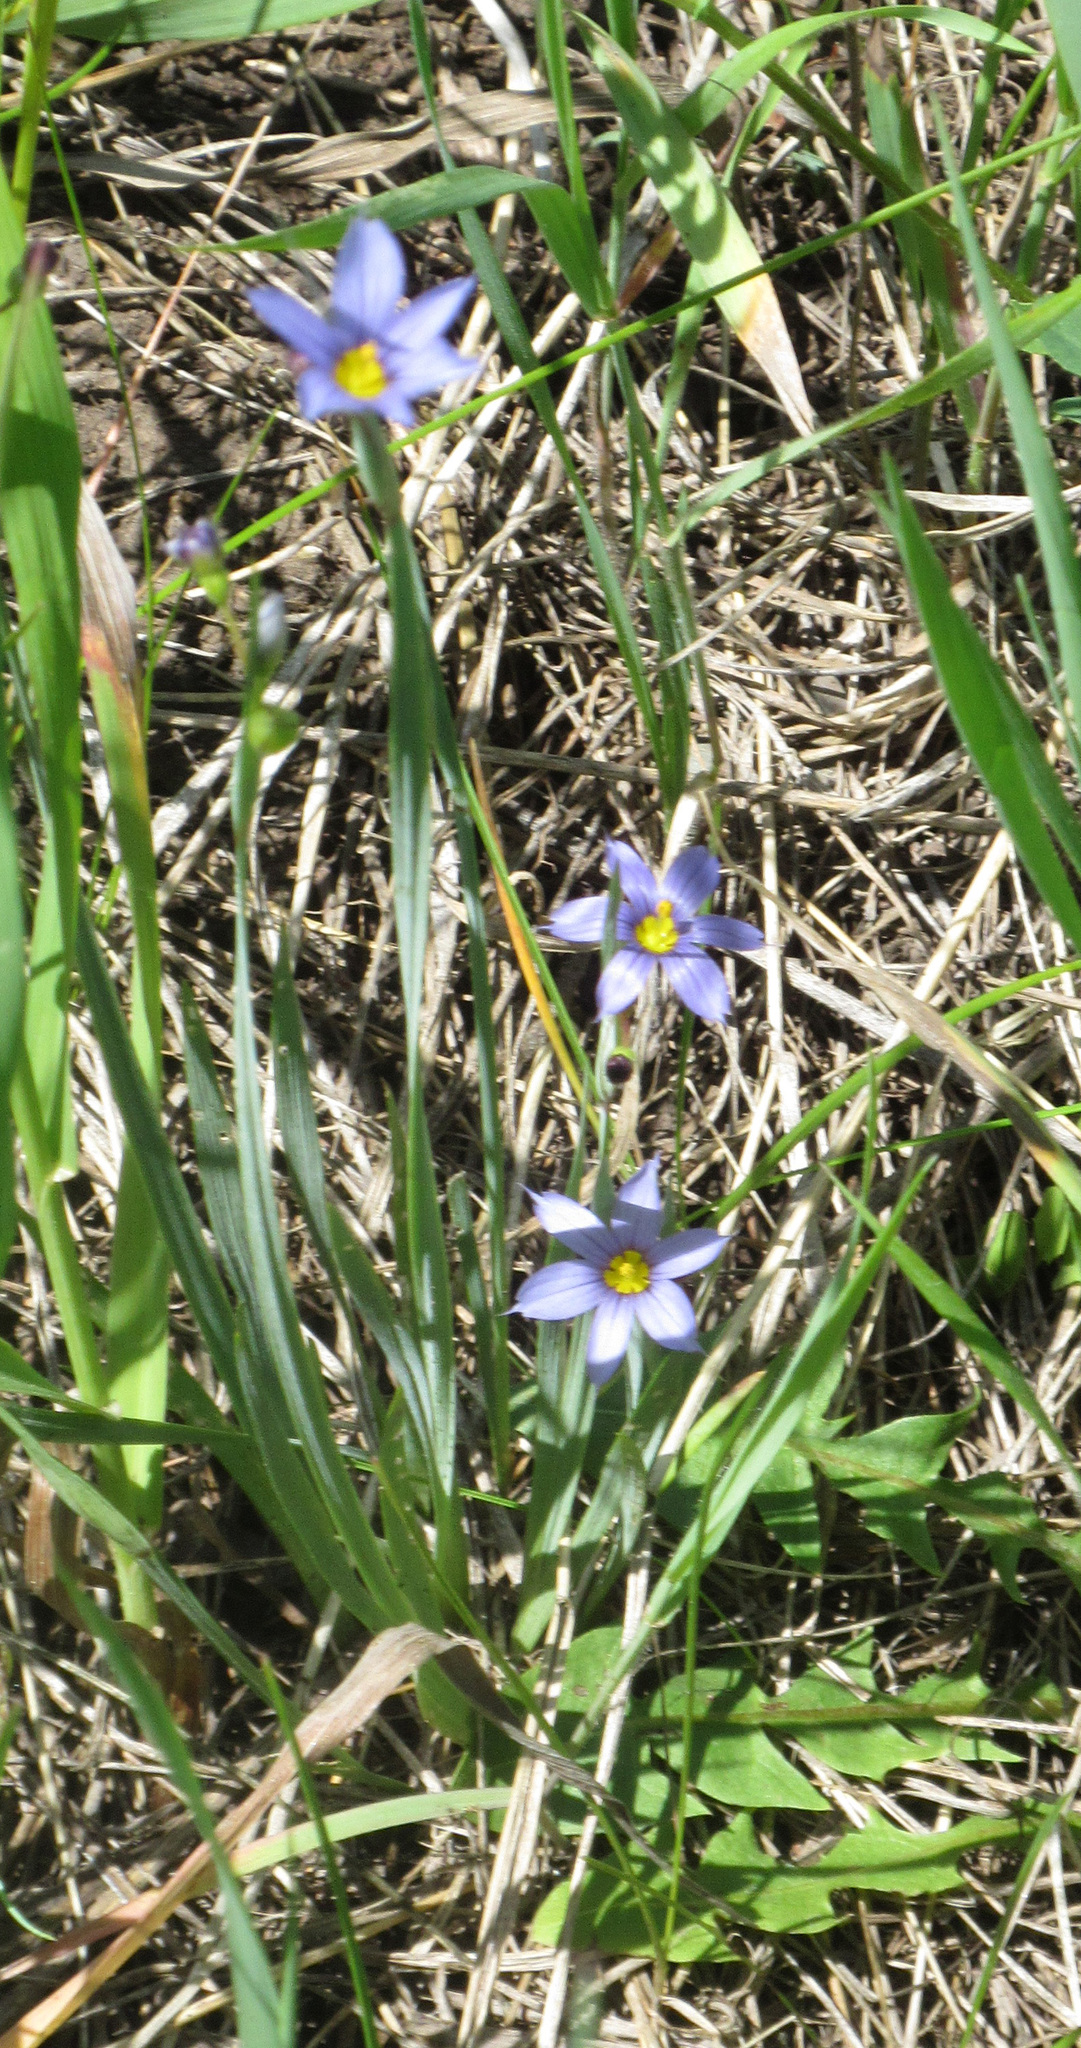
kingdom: Plantae
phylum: Tracheophyta
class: Liliopsida
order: Asparagales
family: Iridaceae
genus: Sisyrinchium
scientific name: Sisyrinchium montanum
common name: American blue-eyed-grass
